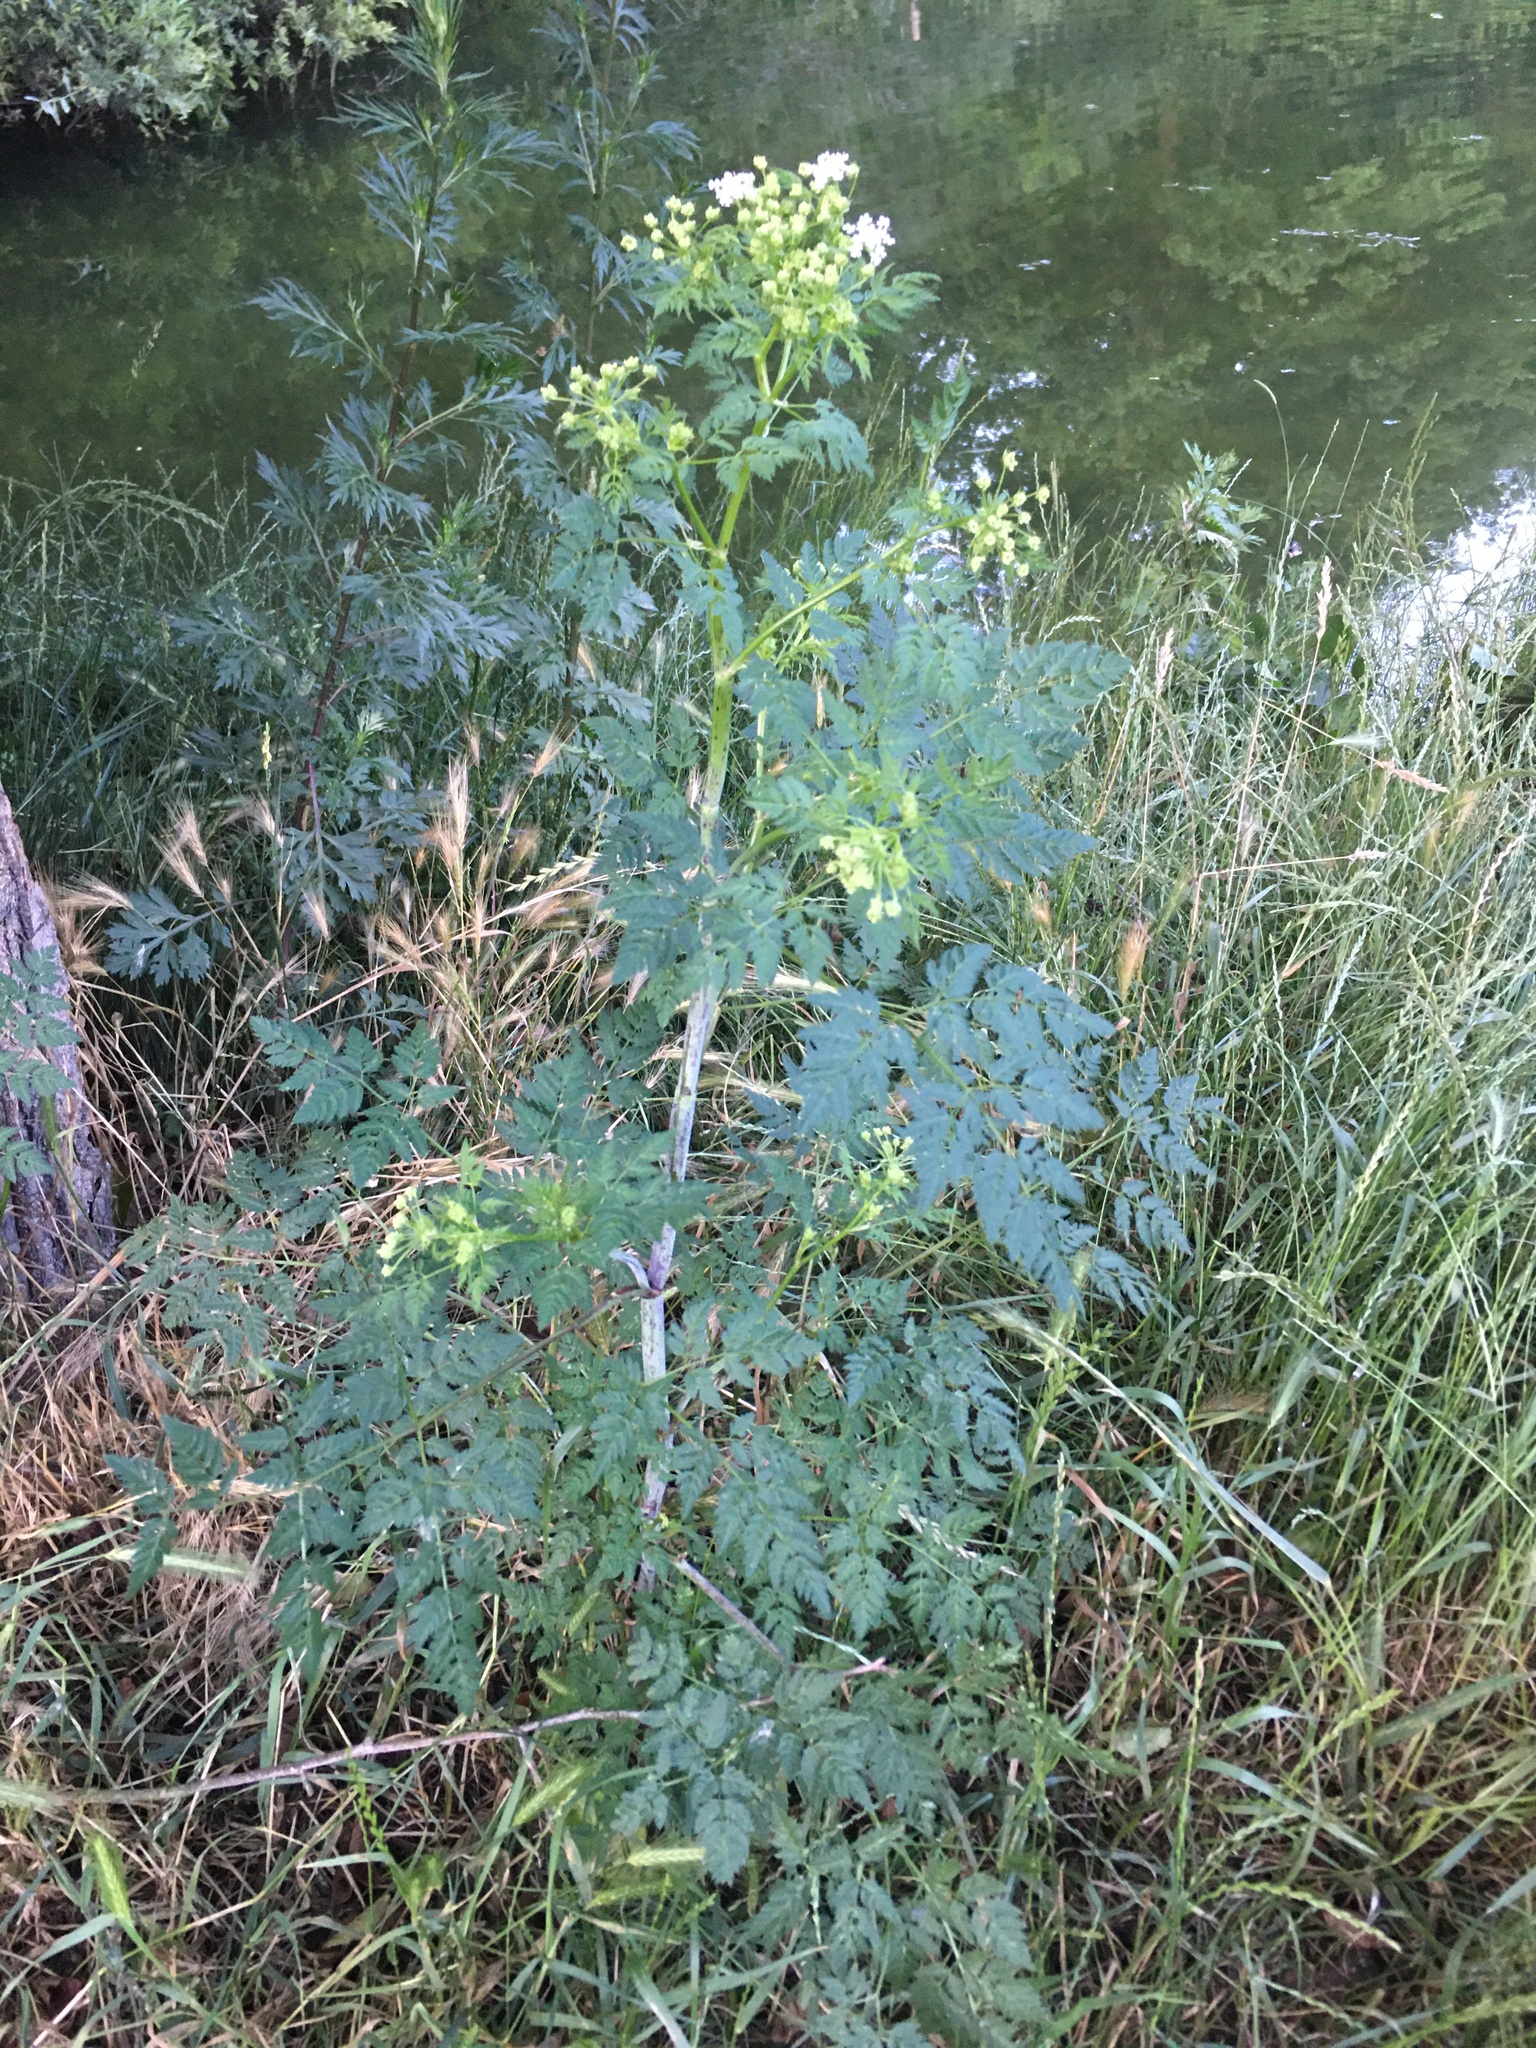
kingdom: Plantae
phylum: Tracheophyta
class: Magnoliopsida
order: Apiales
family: Apiaceae
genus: Conium
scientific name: Conium maculatum
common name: Hemlock
